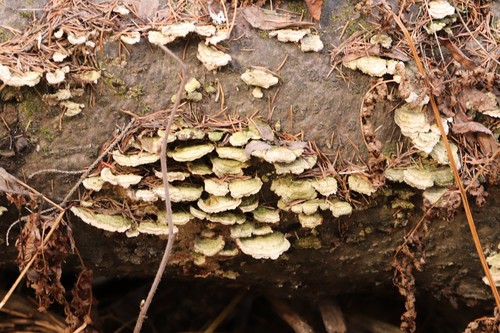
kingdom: Fungi
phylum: Basidiomycota
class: Agaricomycetes
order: Hymenochaetales
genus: Trichaptum
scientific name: Trichaptum fuscoviolaceum
